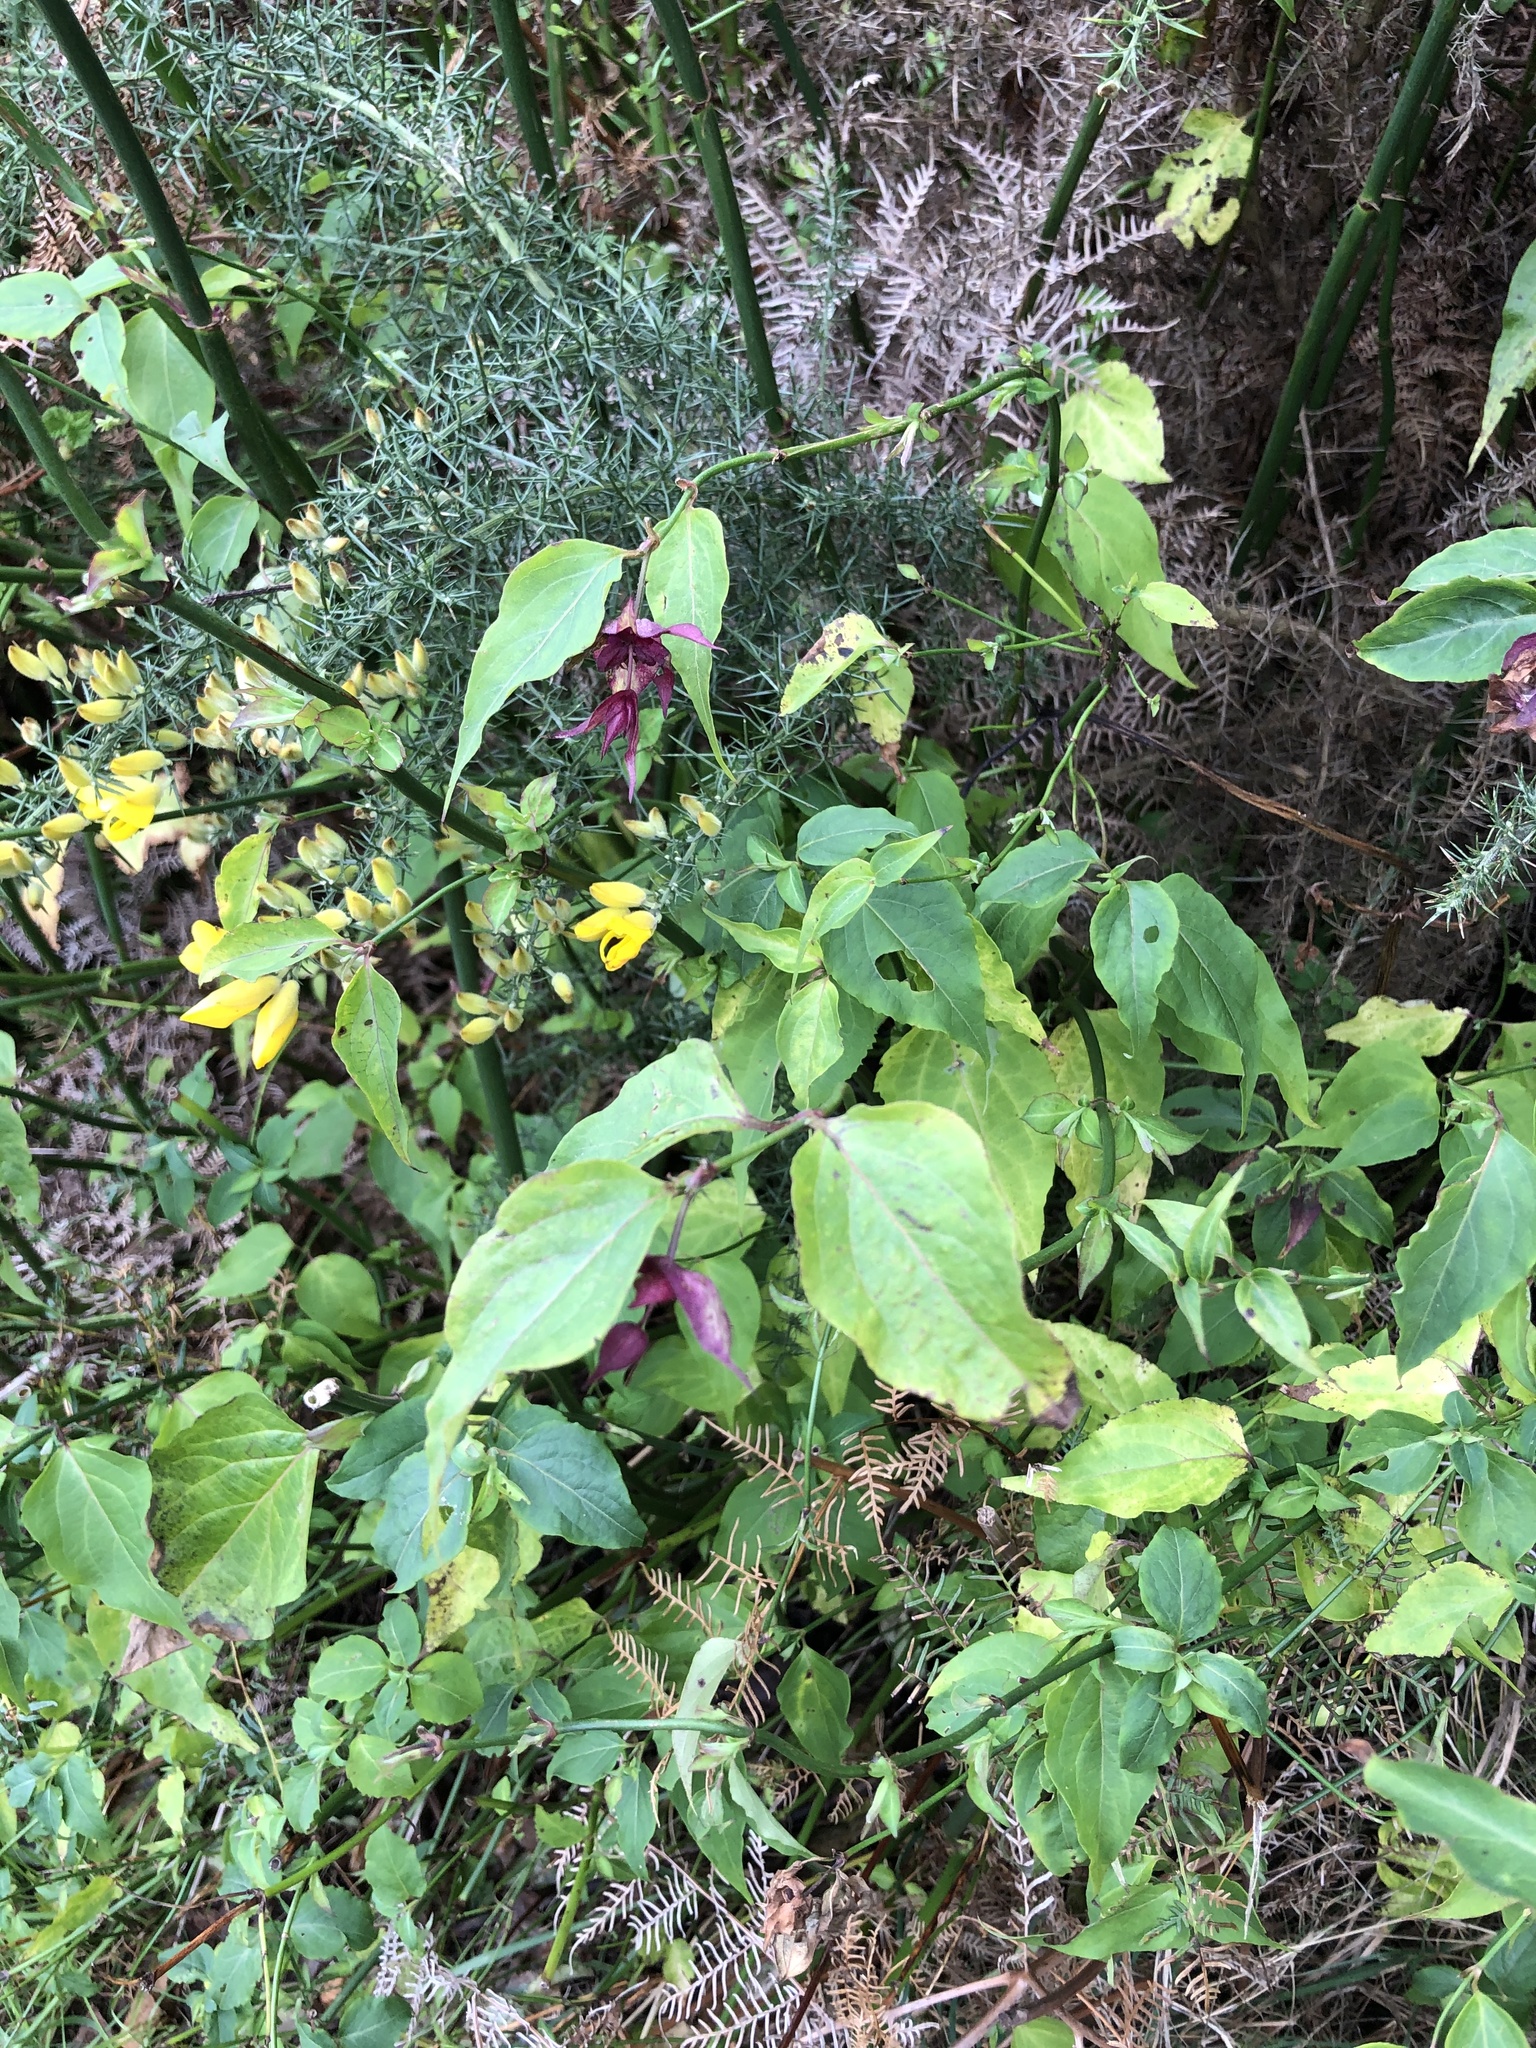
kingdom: Plantae
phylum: Tracheophyta
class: Magnoliopsida
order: Dipsacales
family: Caprifoliaceae
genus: Leycesteria
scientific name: Leycesteria formosa
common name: Himalayan honeysuckle
